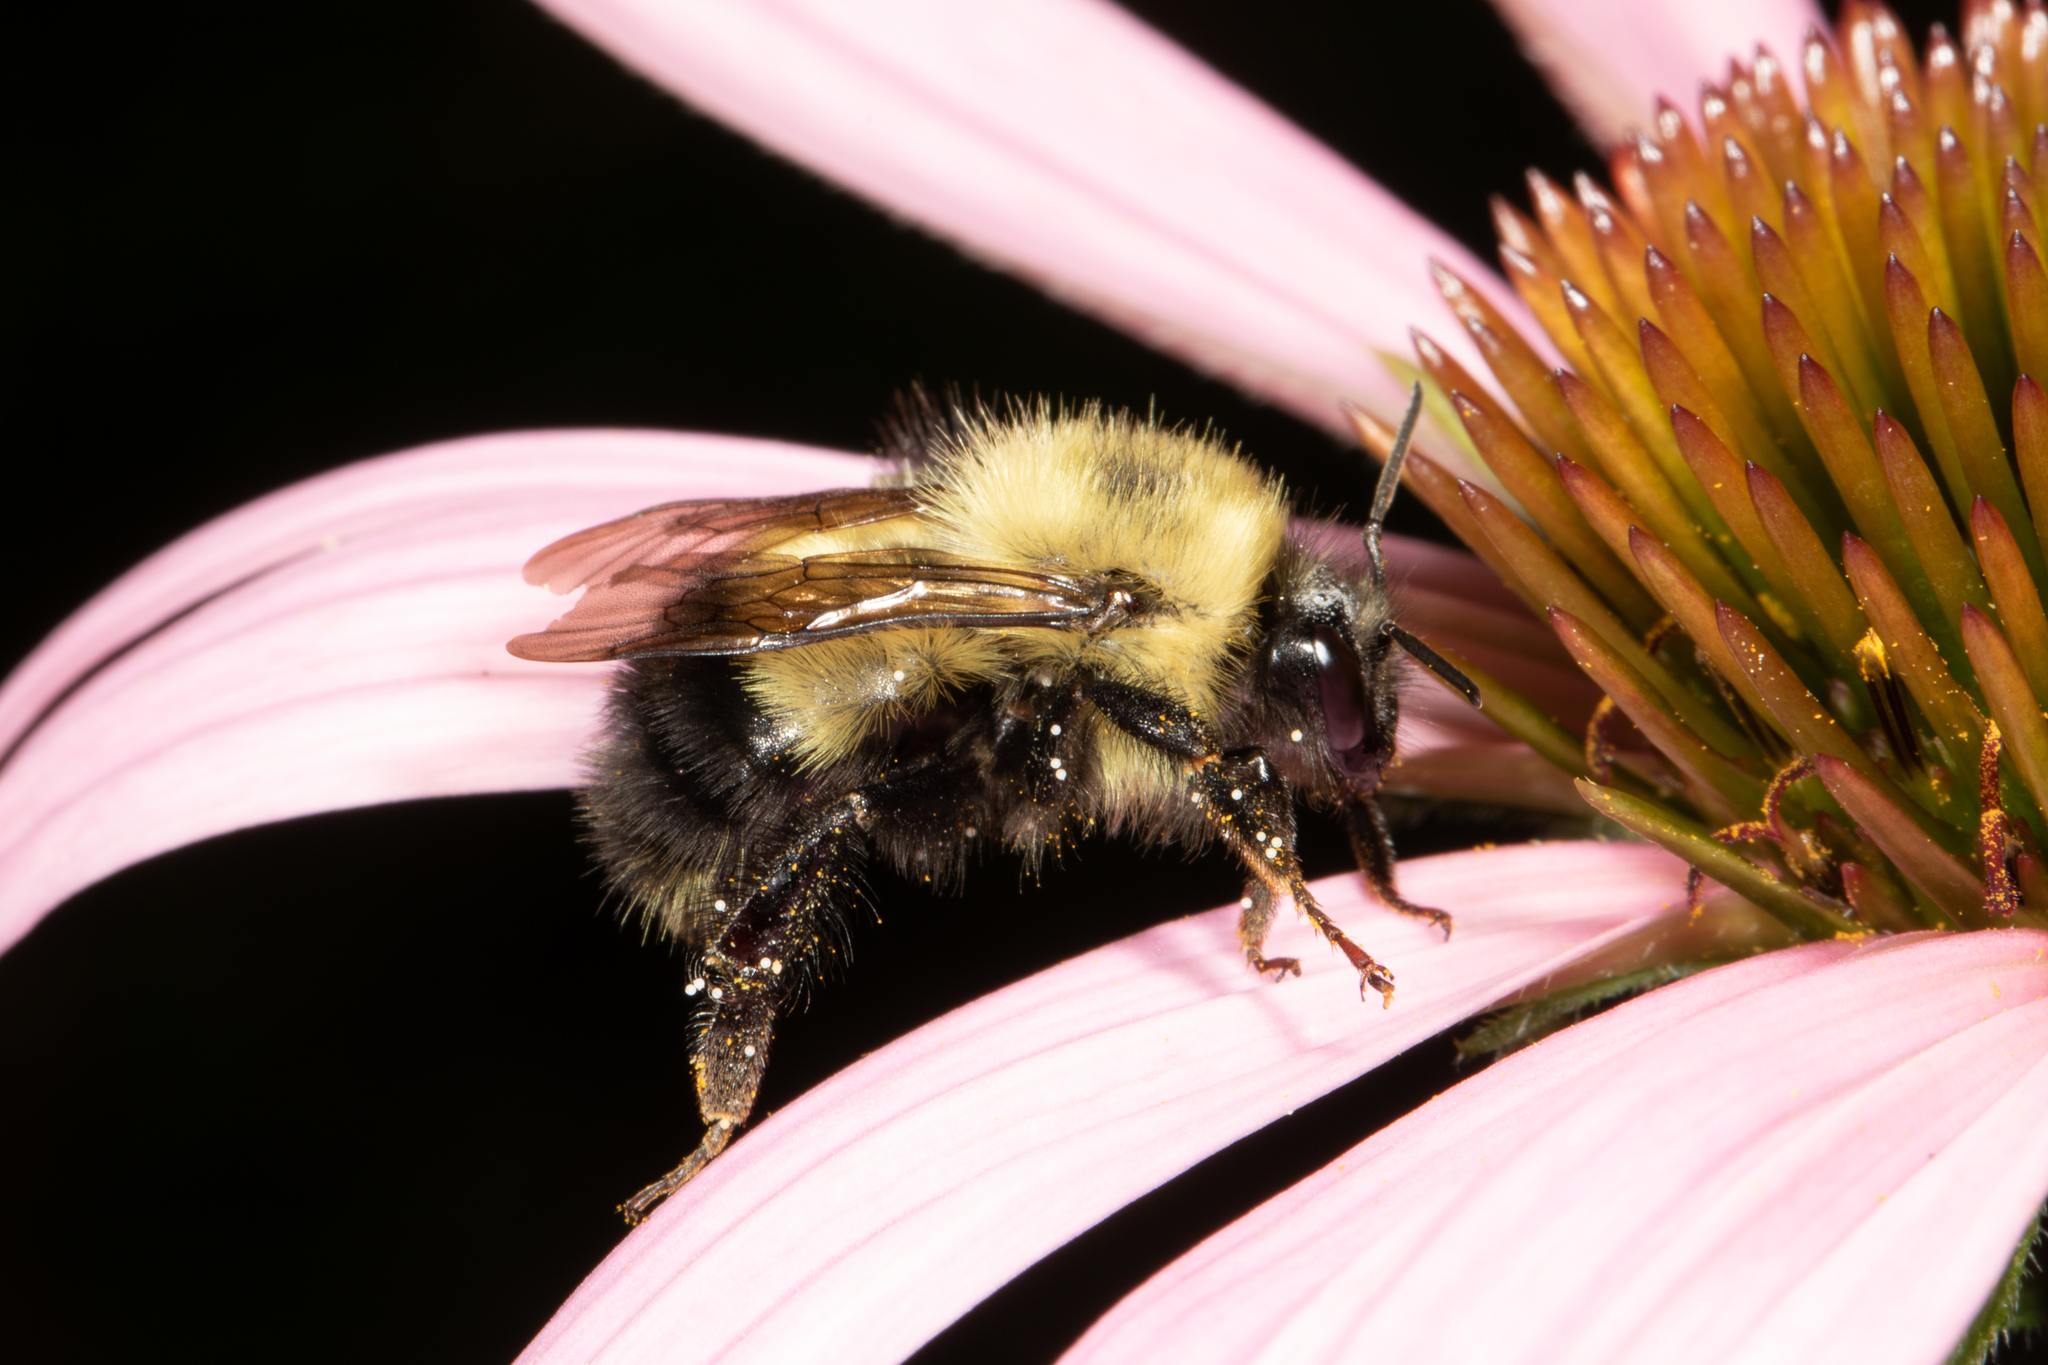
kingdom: Animalia
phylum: Arthropoda
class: Insecta
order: Hymenoptera
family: Apidae
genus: Bombus
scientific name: Bombus vagans
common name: Half-black bumble bee
